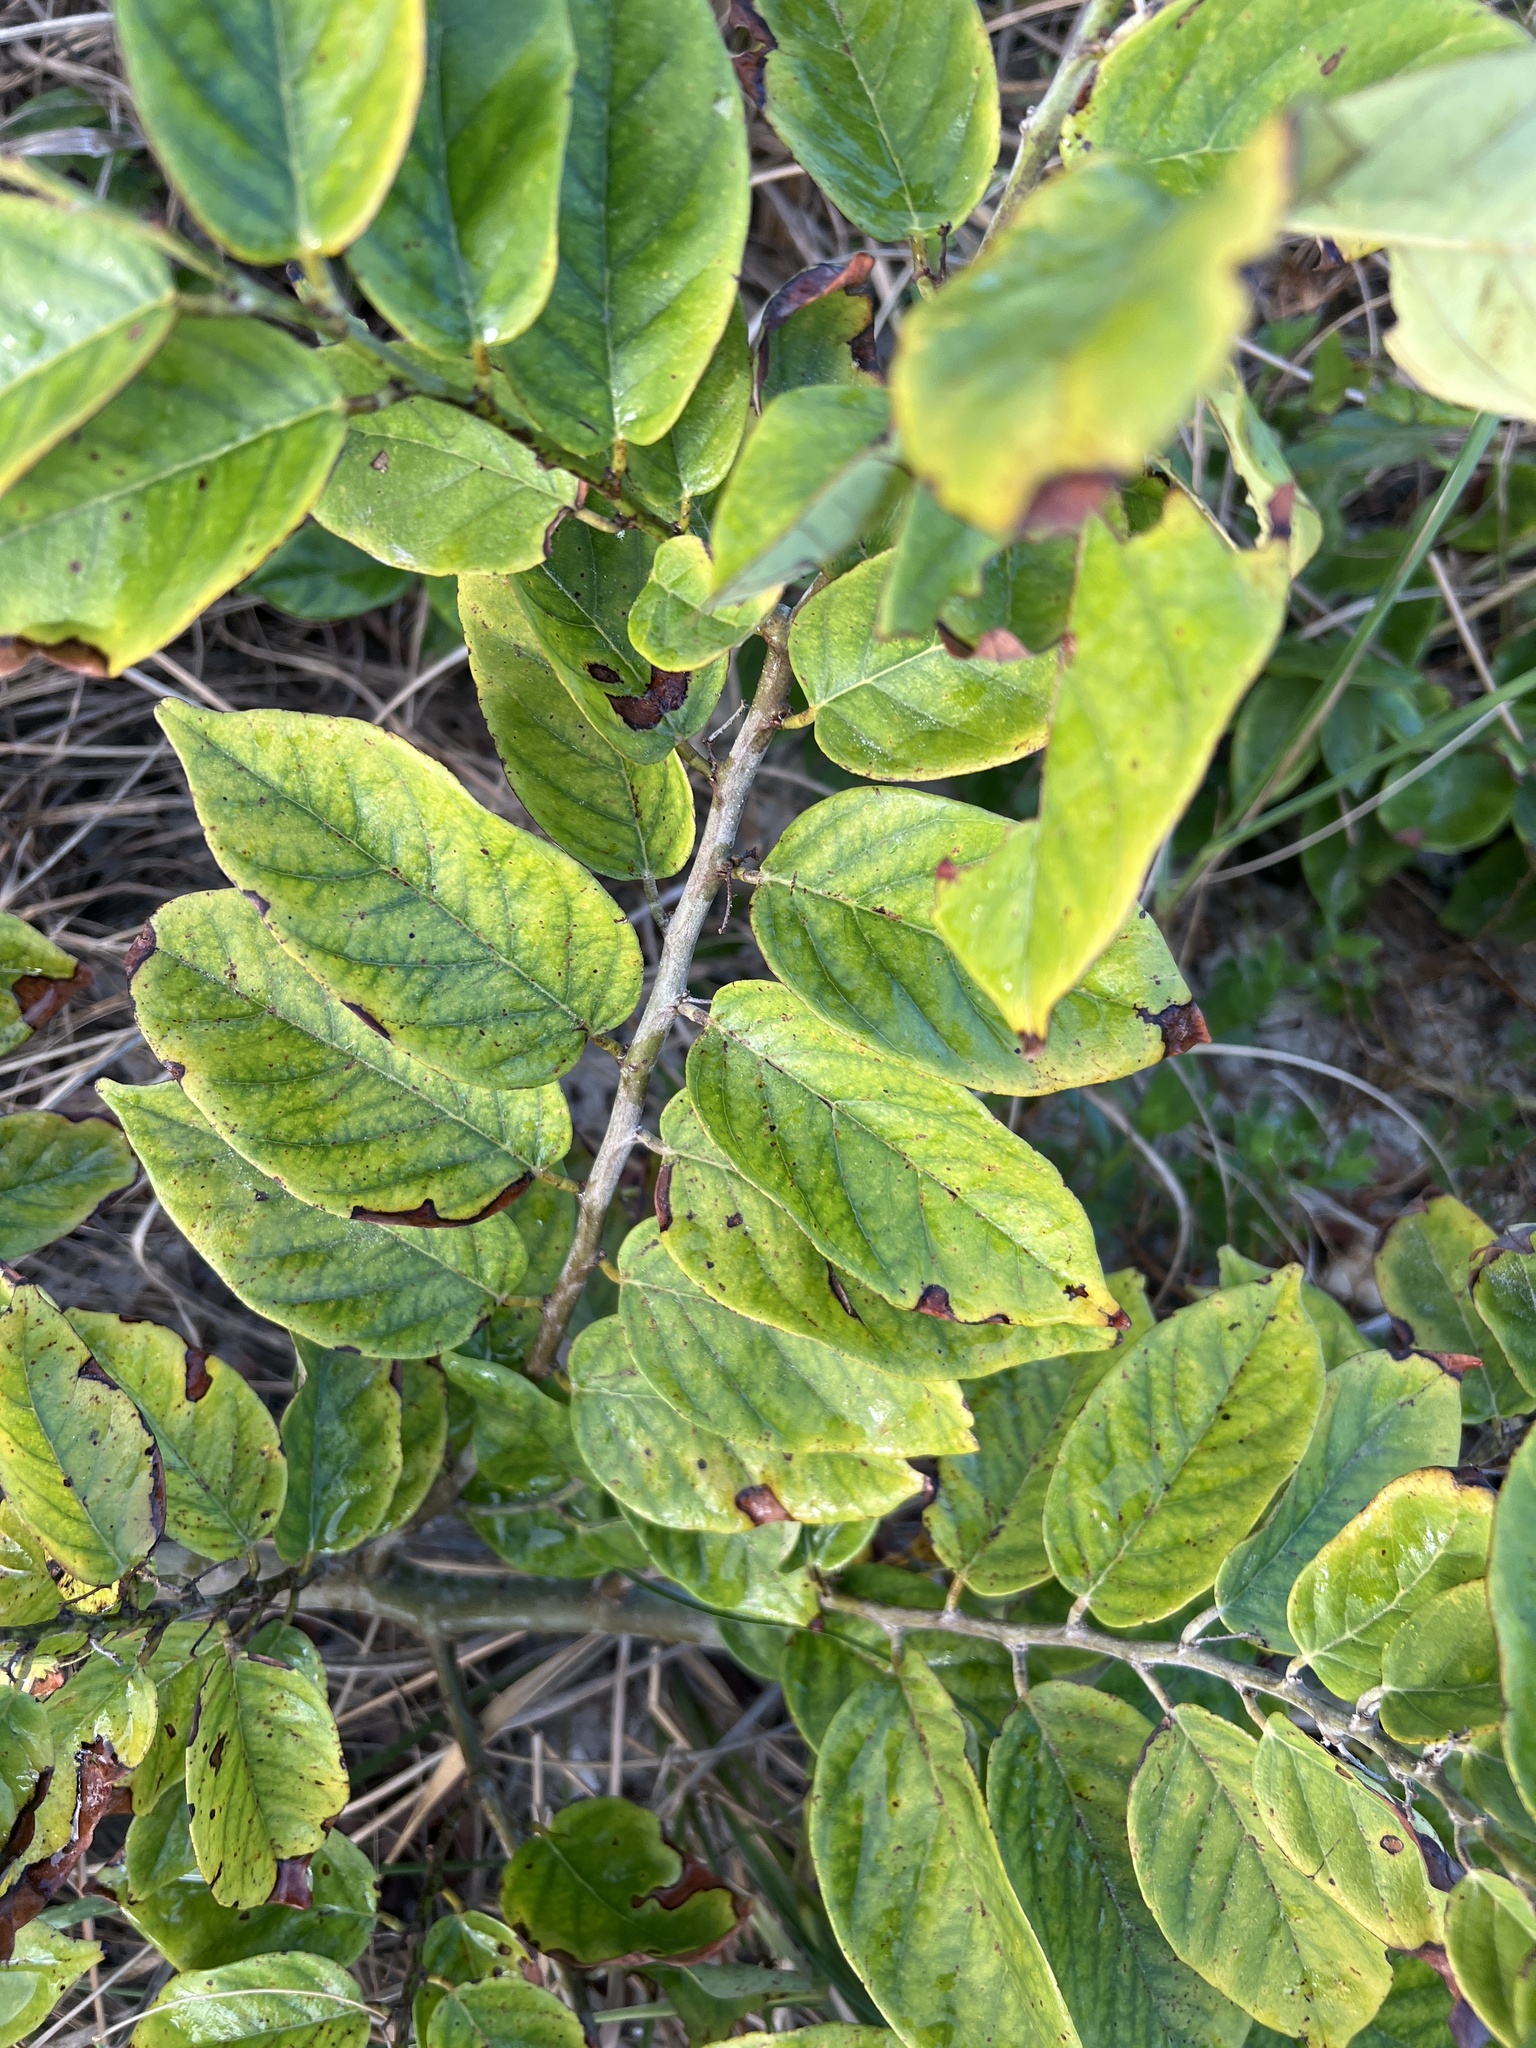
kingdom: Plantae
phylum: Tracheophyta
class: Magnoliopsida
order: Fabales
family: Fabaceae
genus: Dalbergia
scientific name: Dalbergia ecastaphyllum
